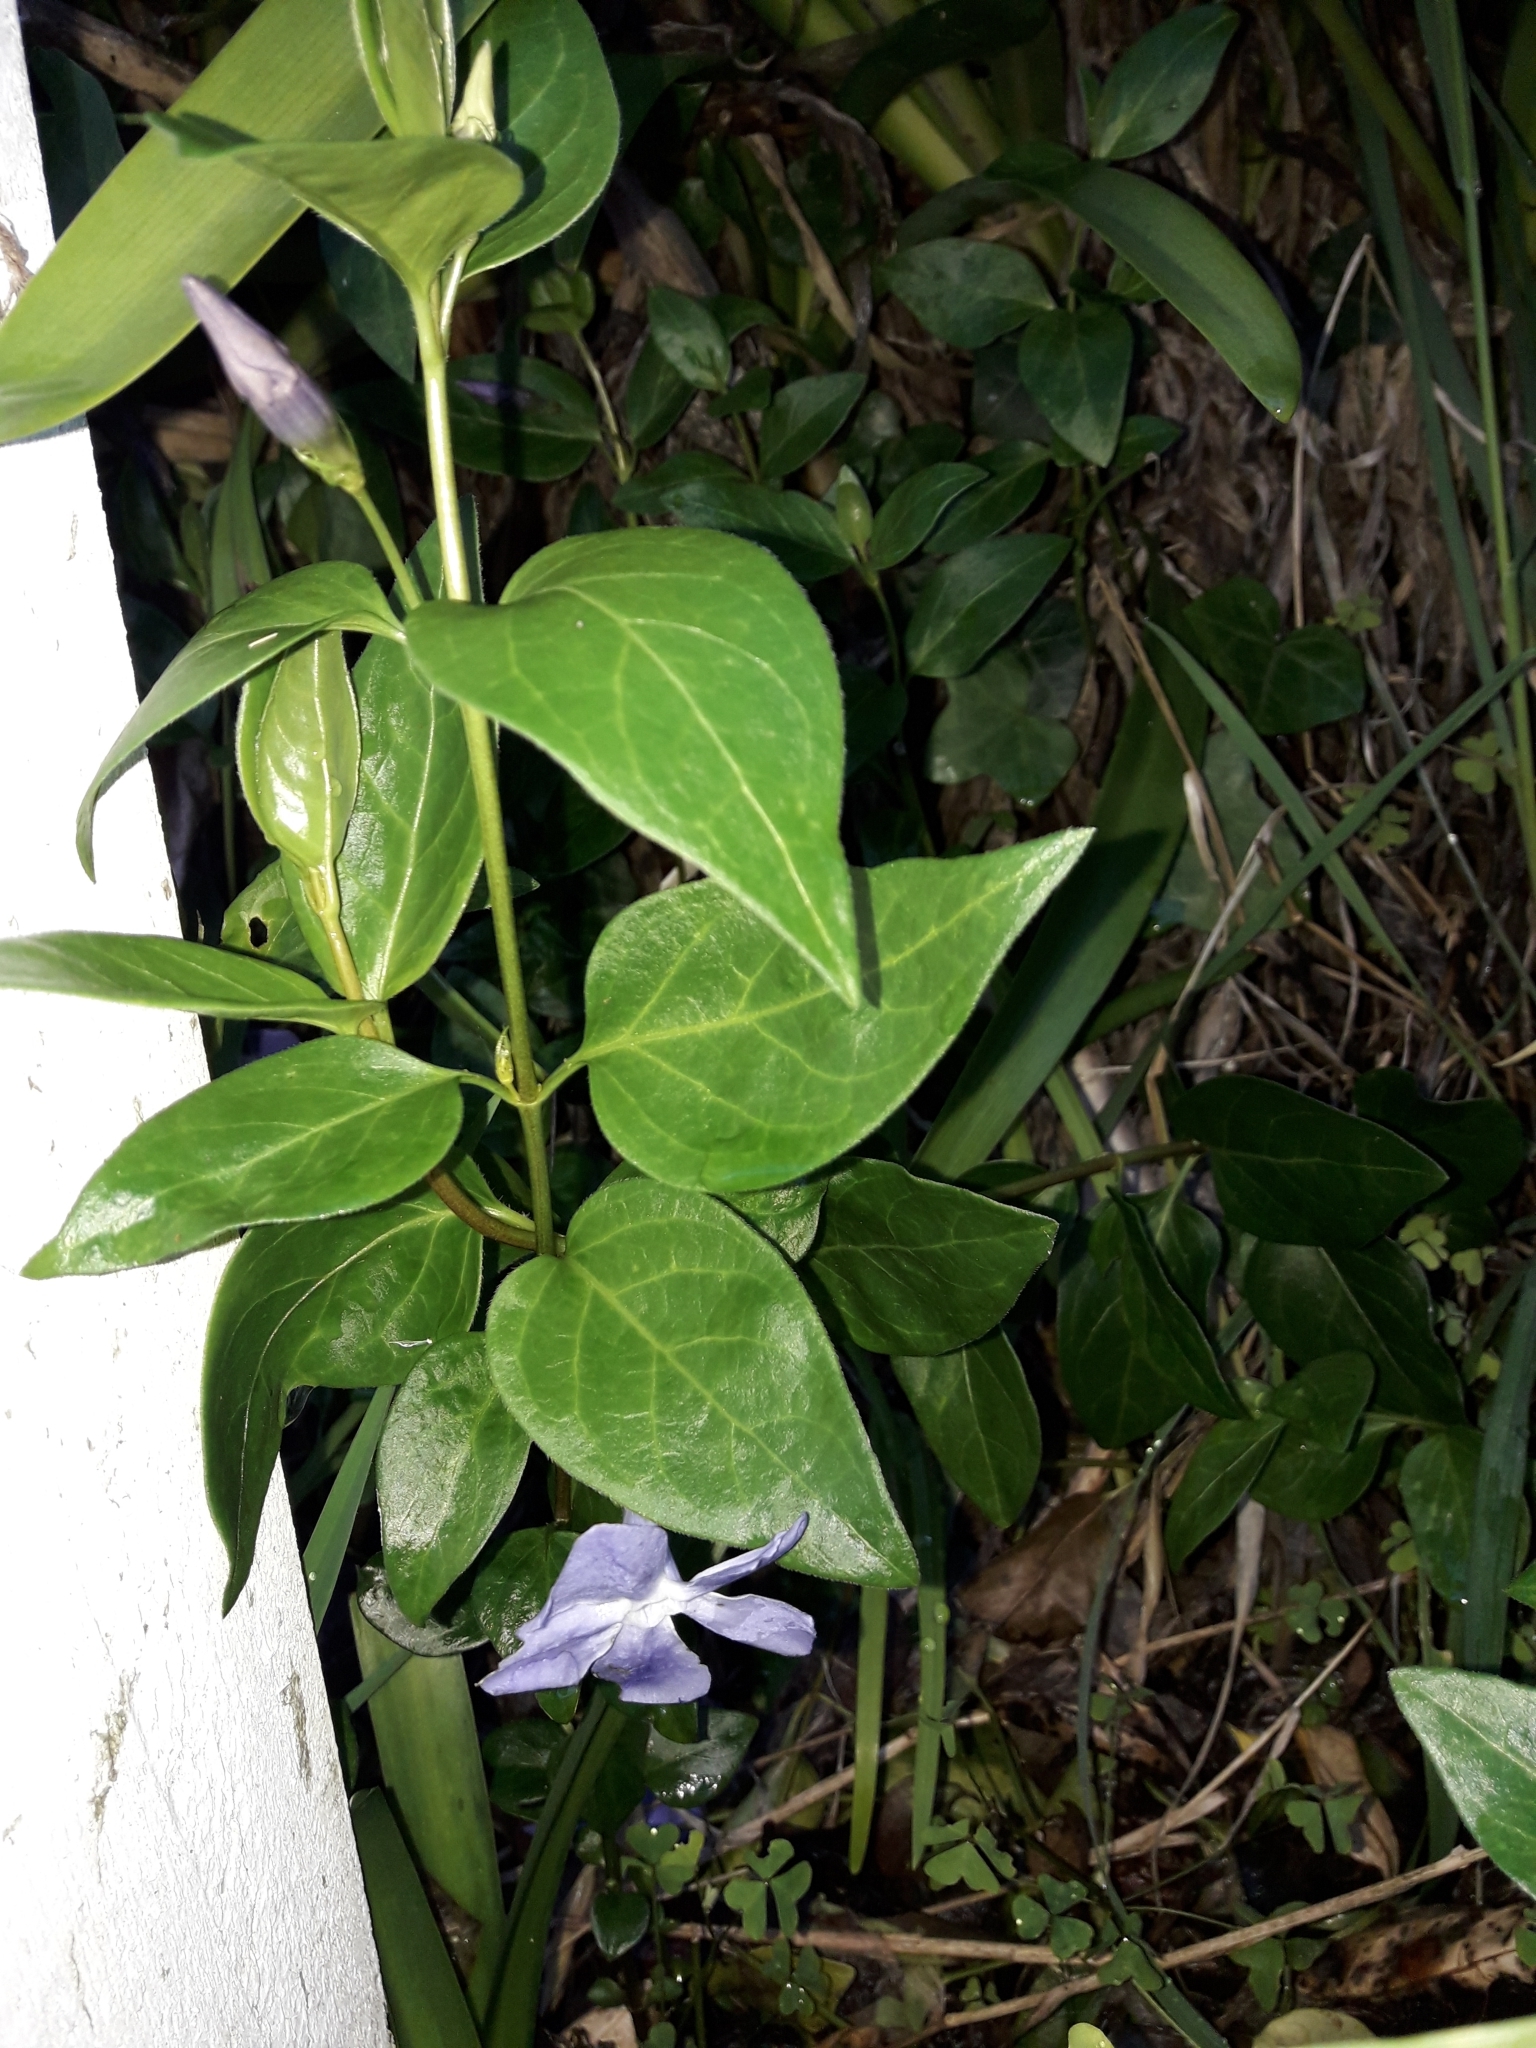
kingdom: Plantae
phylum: Tracheophyta
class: Magnoliopsida
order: Gentianales
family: Apocynaceae
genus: Vinca
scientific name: Vinca major
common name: Greater periwinkle
